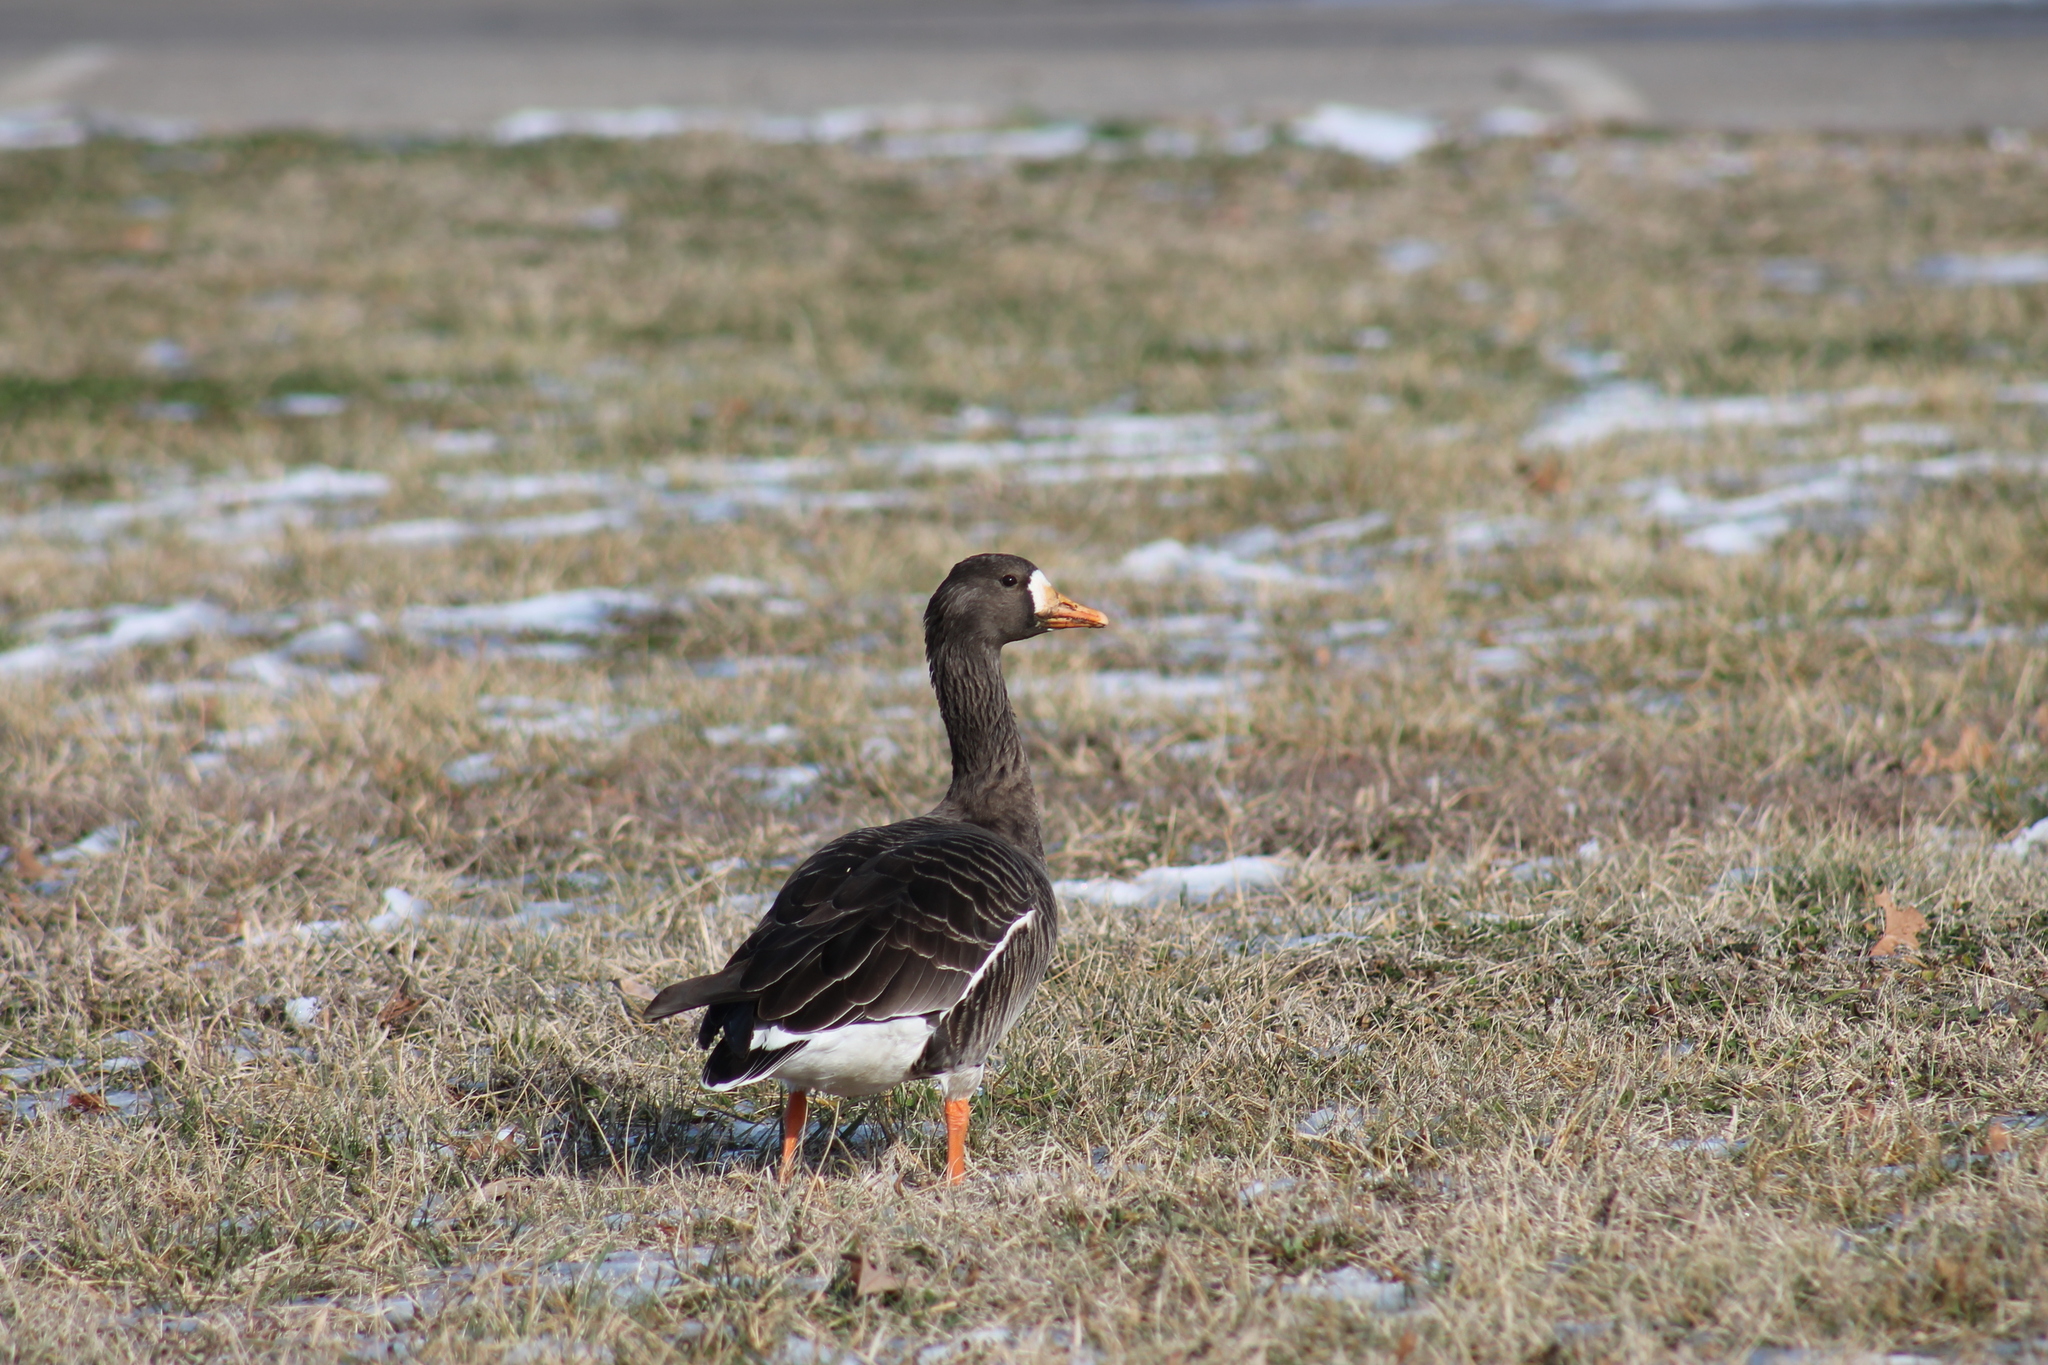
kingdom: Animalia
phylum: Chordata
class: Aves
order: Anseriformes
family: Anatidae
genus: Anser
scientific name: Anser albifrons
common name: Greater white-fronted goose
